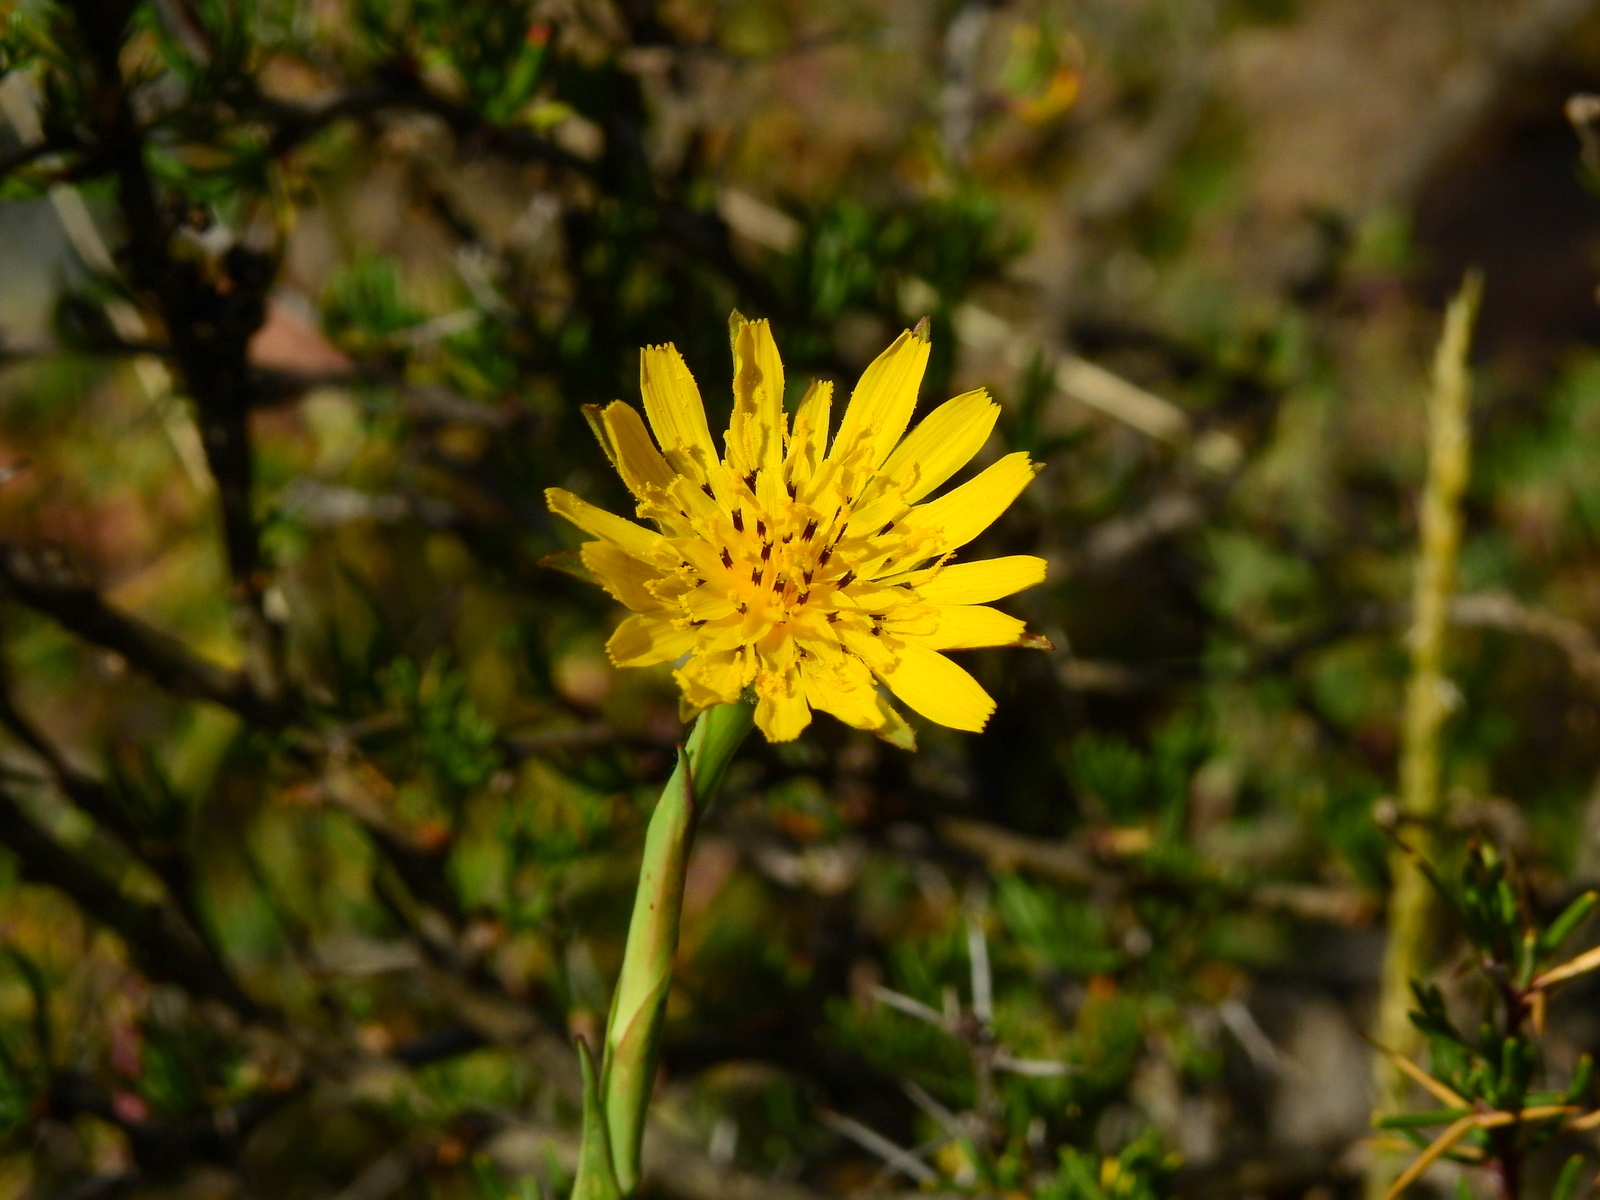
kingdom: Plantae
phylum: Tracheophyta
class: Magnoliopsida
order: Asterales
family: Asteraceae
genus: Tragopogon
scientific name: Tragopogon dubius
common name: Yellow salsify
